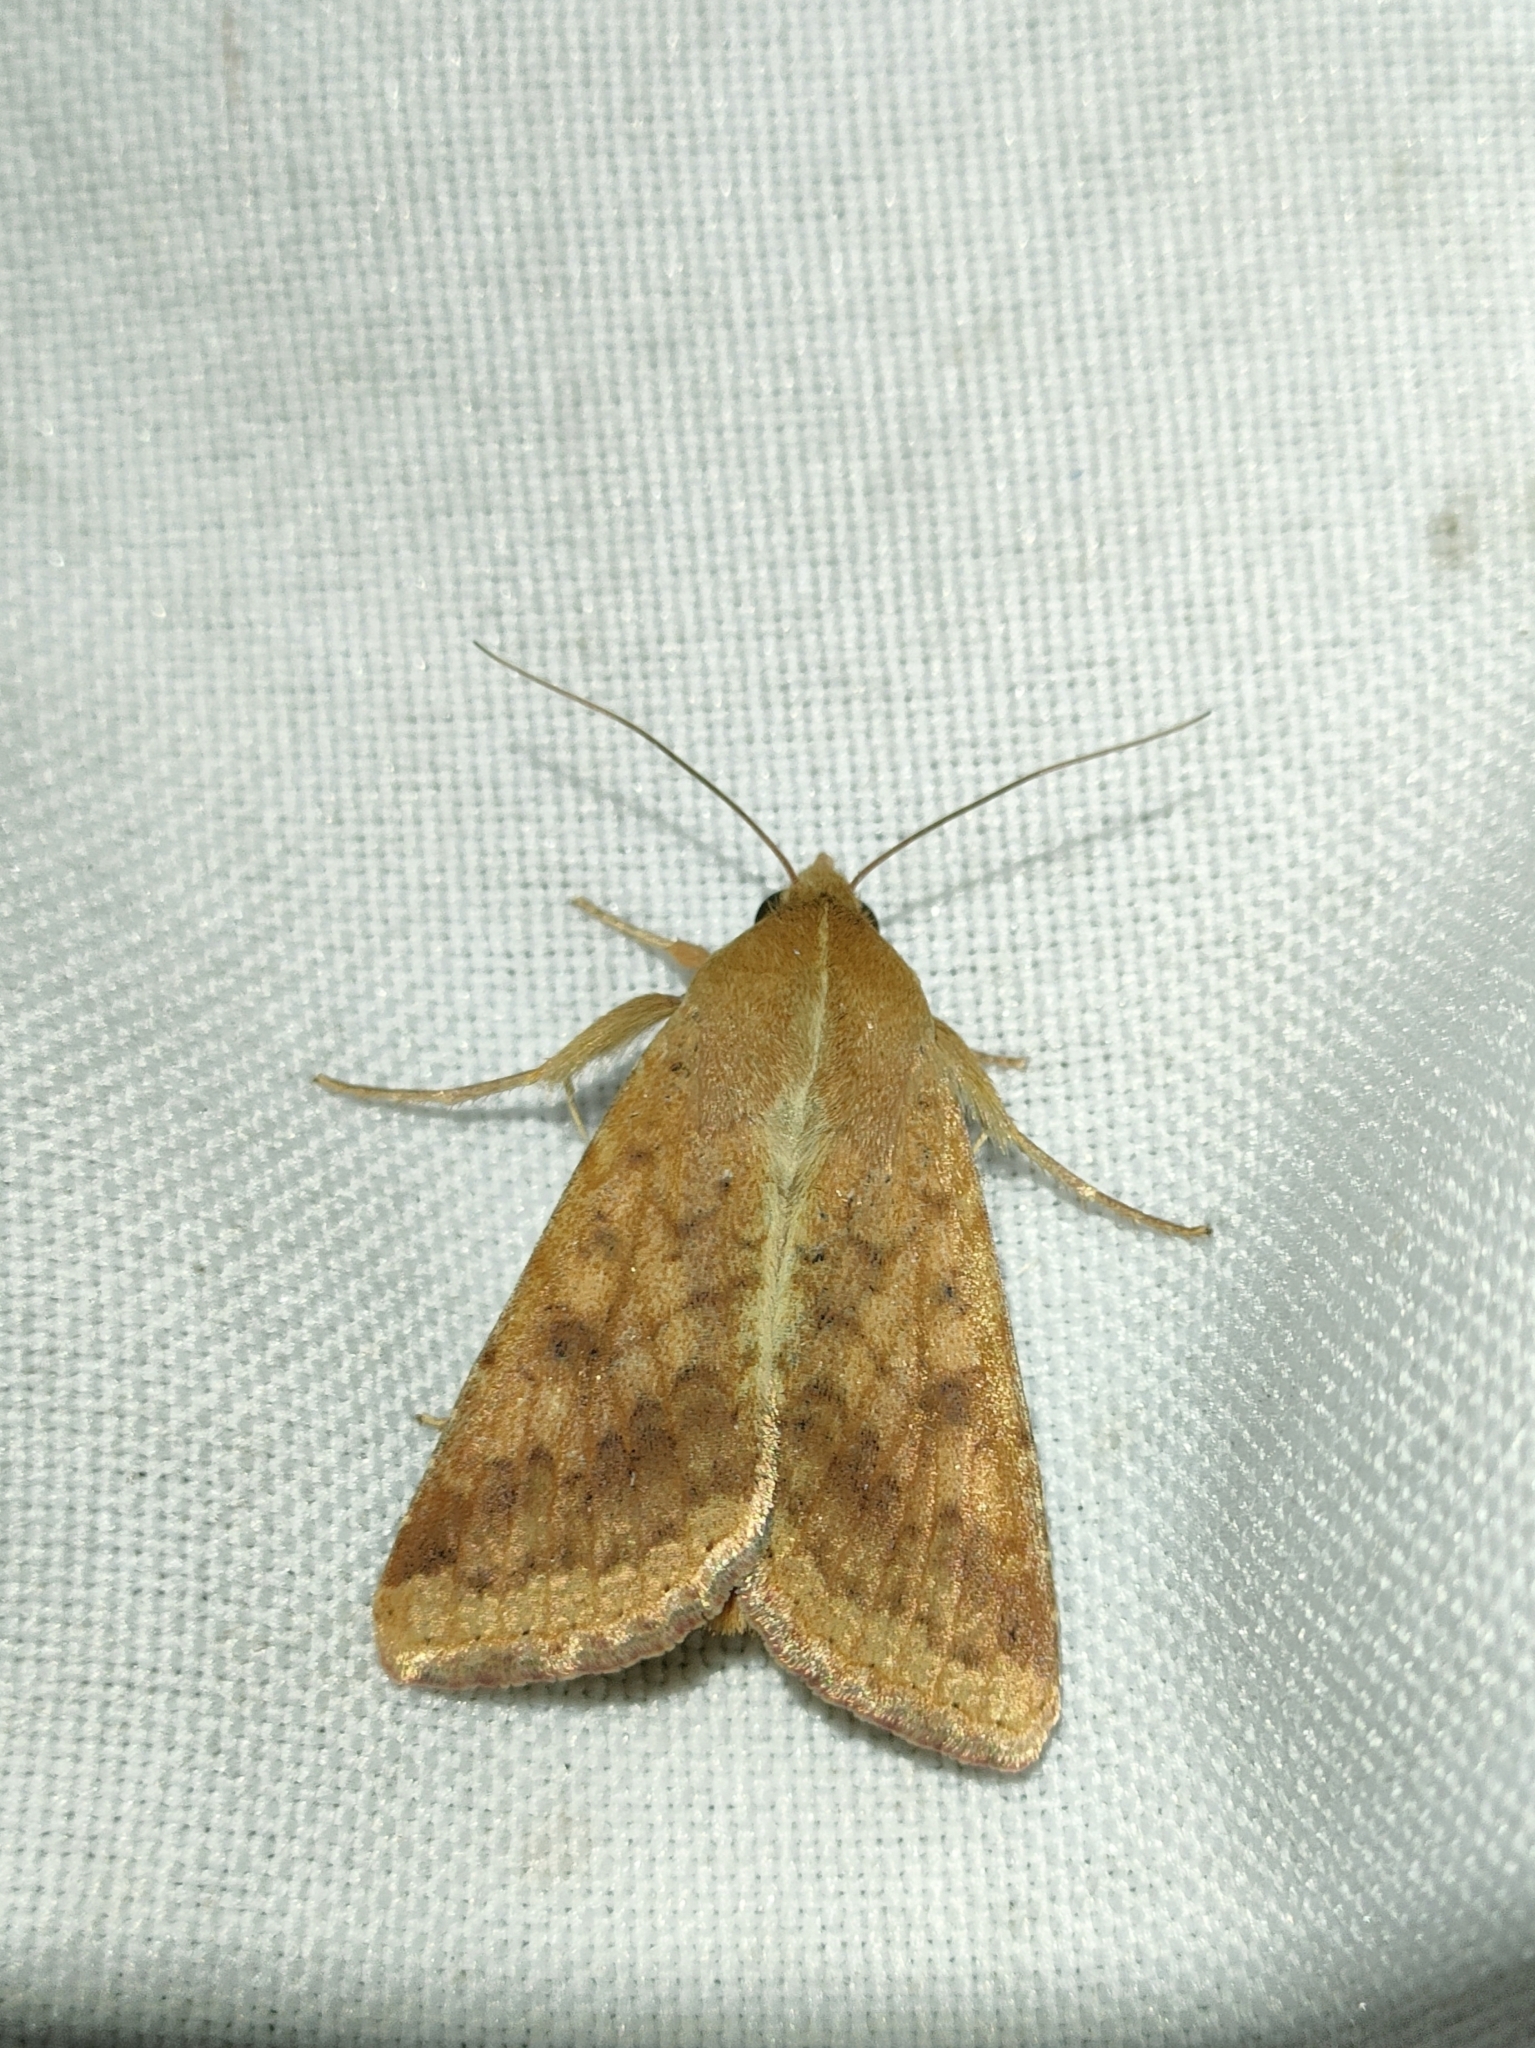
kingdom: Animalia
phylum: Arthropoda
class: Insecta
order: Lepidoptera
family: Noctuidae
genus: Helicoverpa
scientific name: Helicoverpa armigera
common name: Cotton bollworm
